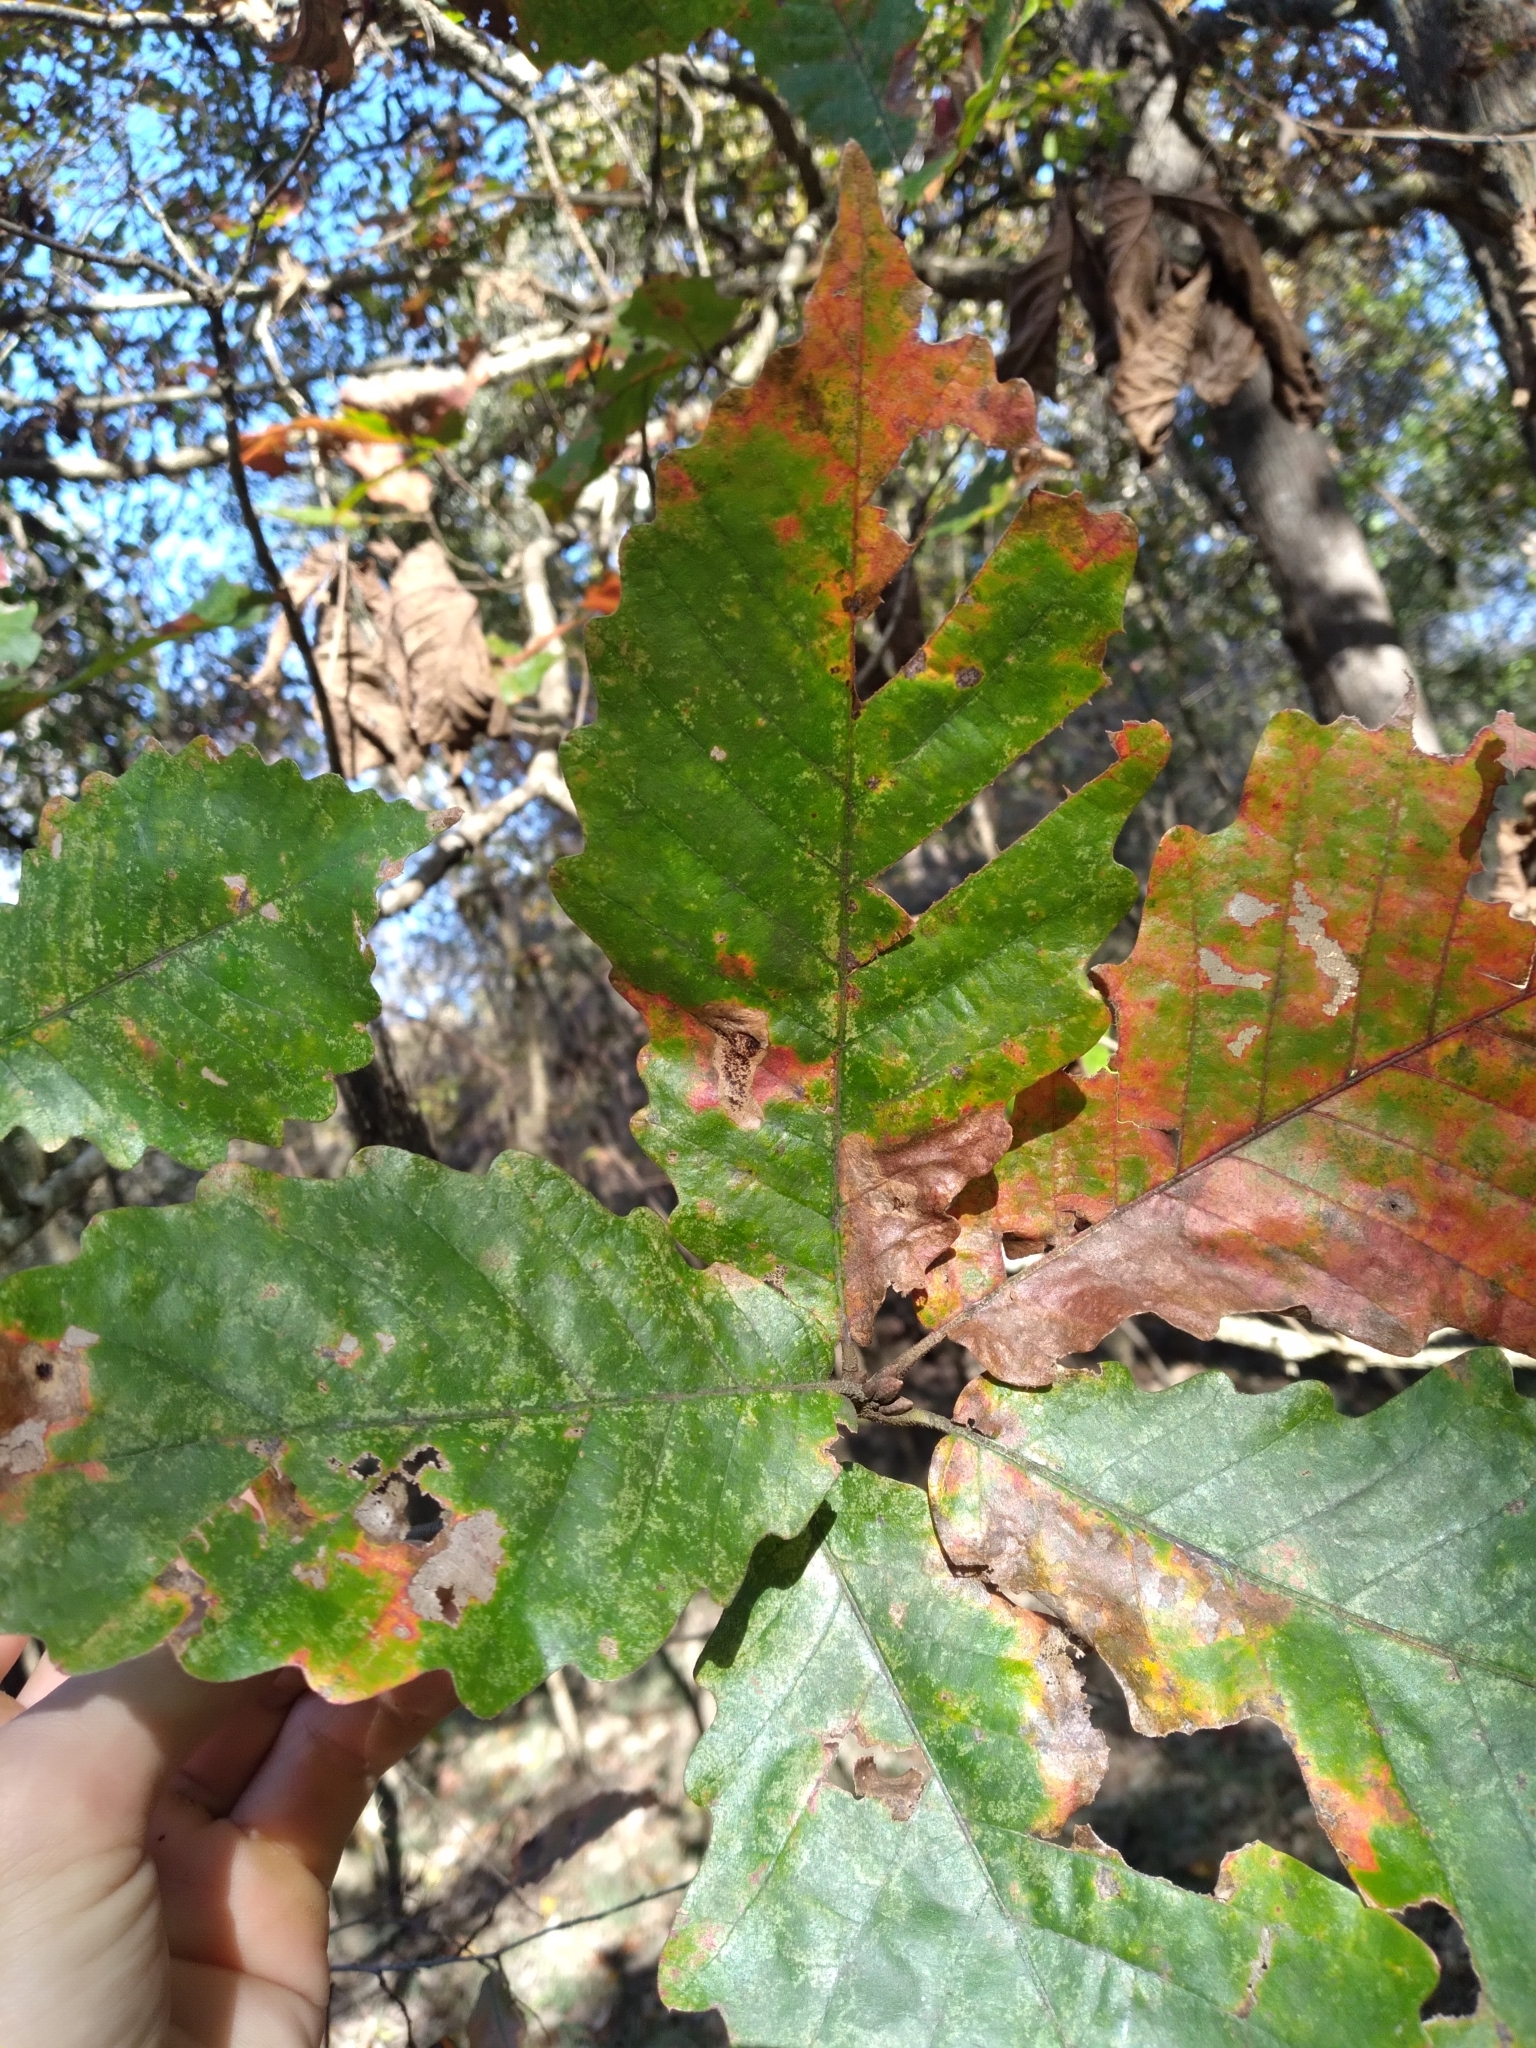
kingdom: Plantae
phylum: Tracheophyta
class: Magnoliopsida
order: Fagales
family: Fagaceae
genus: Quercus
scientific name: Quercus michauxii
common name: Swamp chestnut oak
